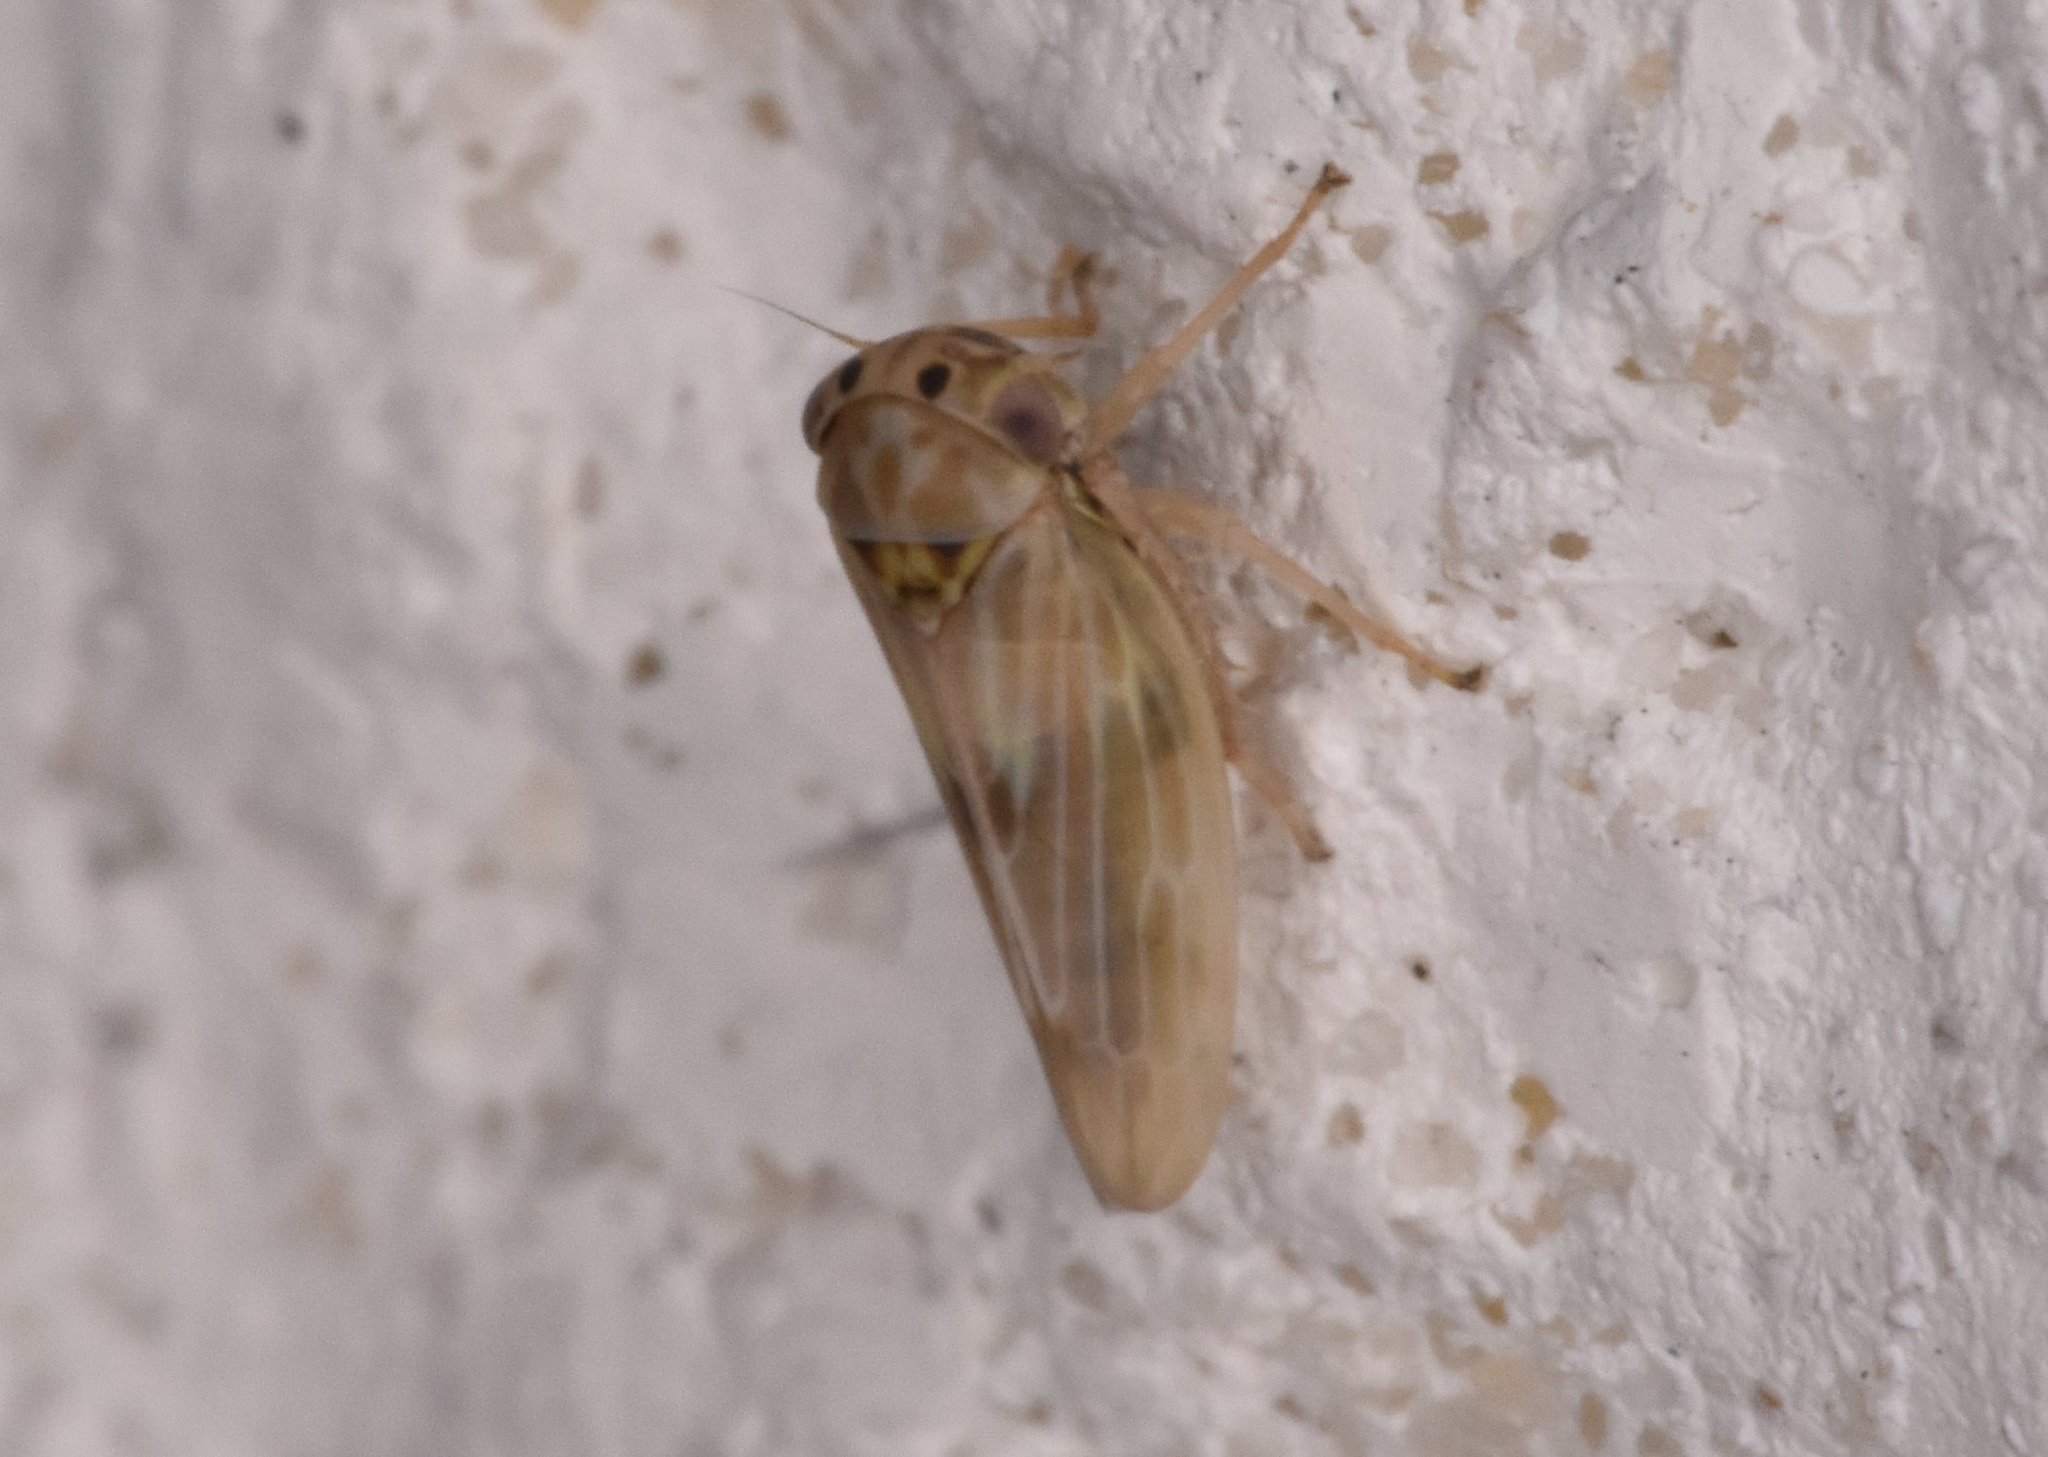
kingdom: Animalia
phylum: Arthropoda
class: Insecta
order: Hemiptera
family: Cicadellidae
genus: Agallia
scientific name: Agallia albidula
